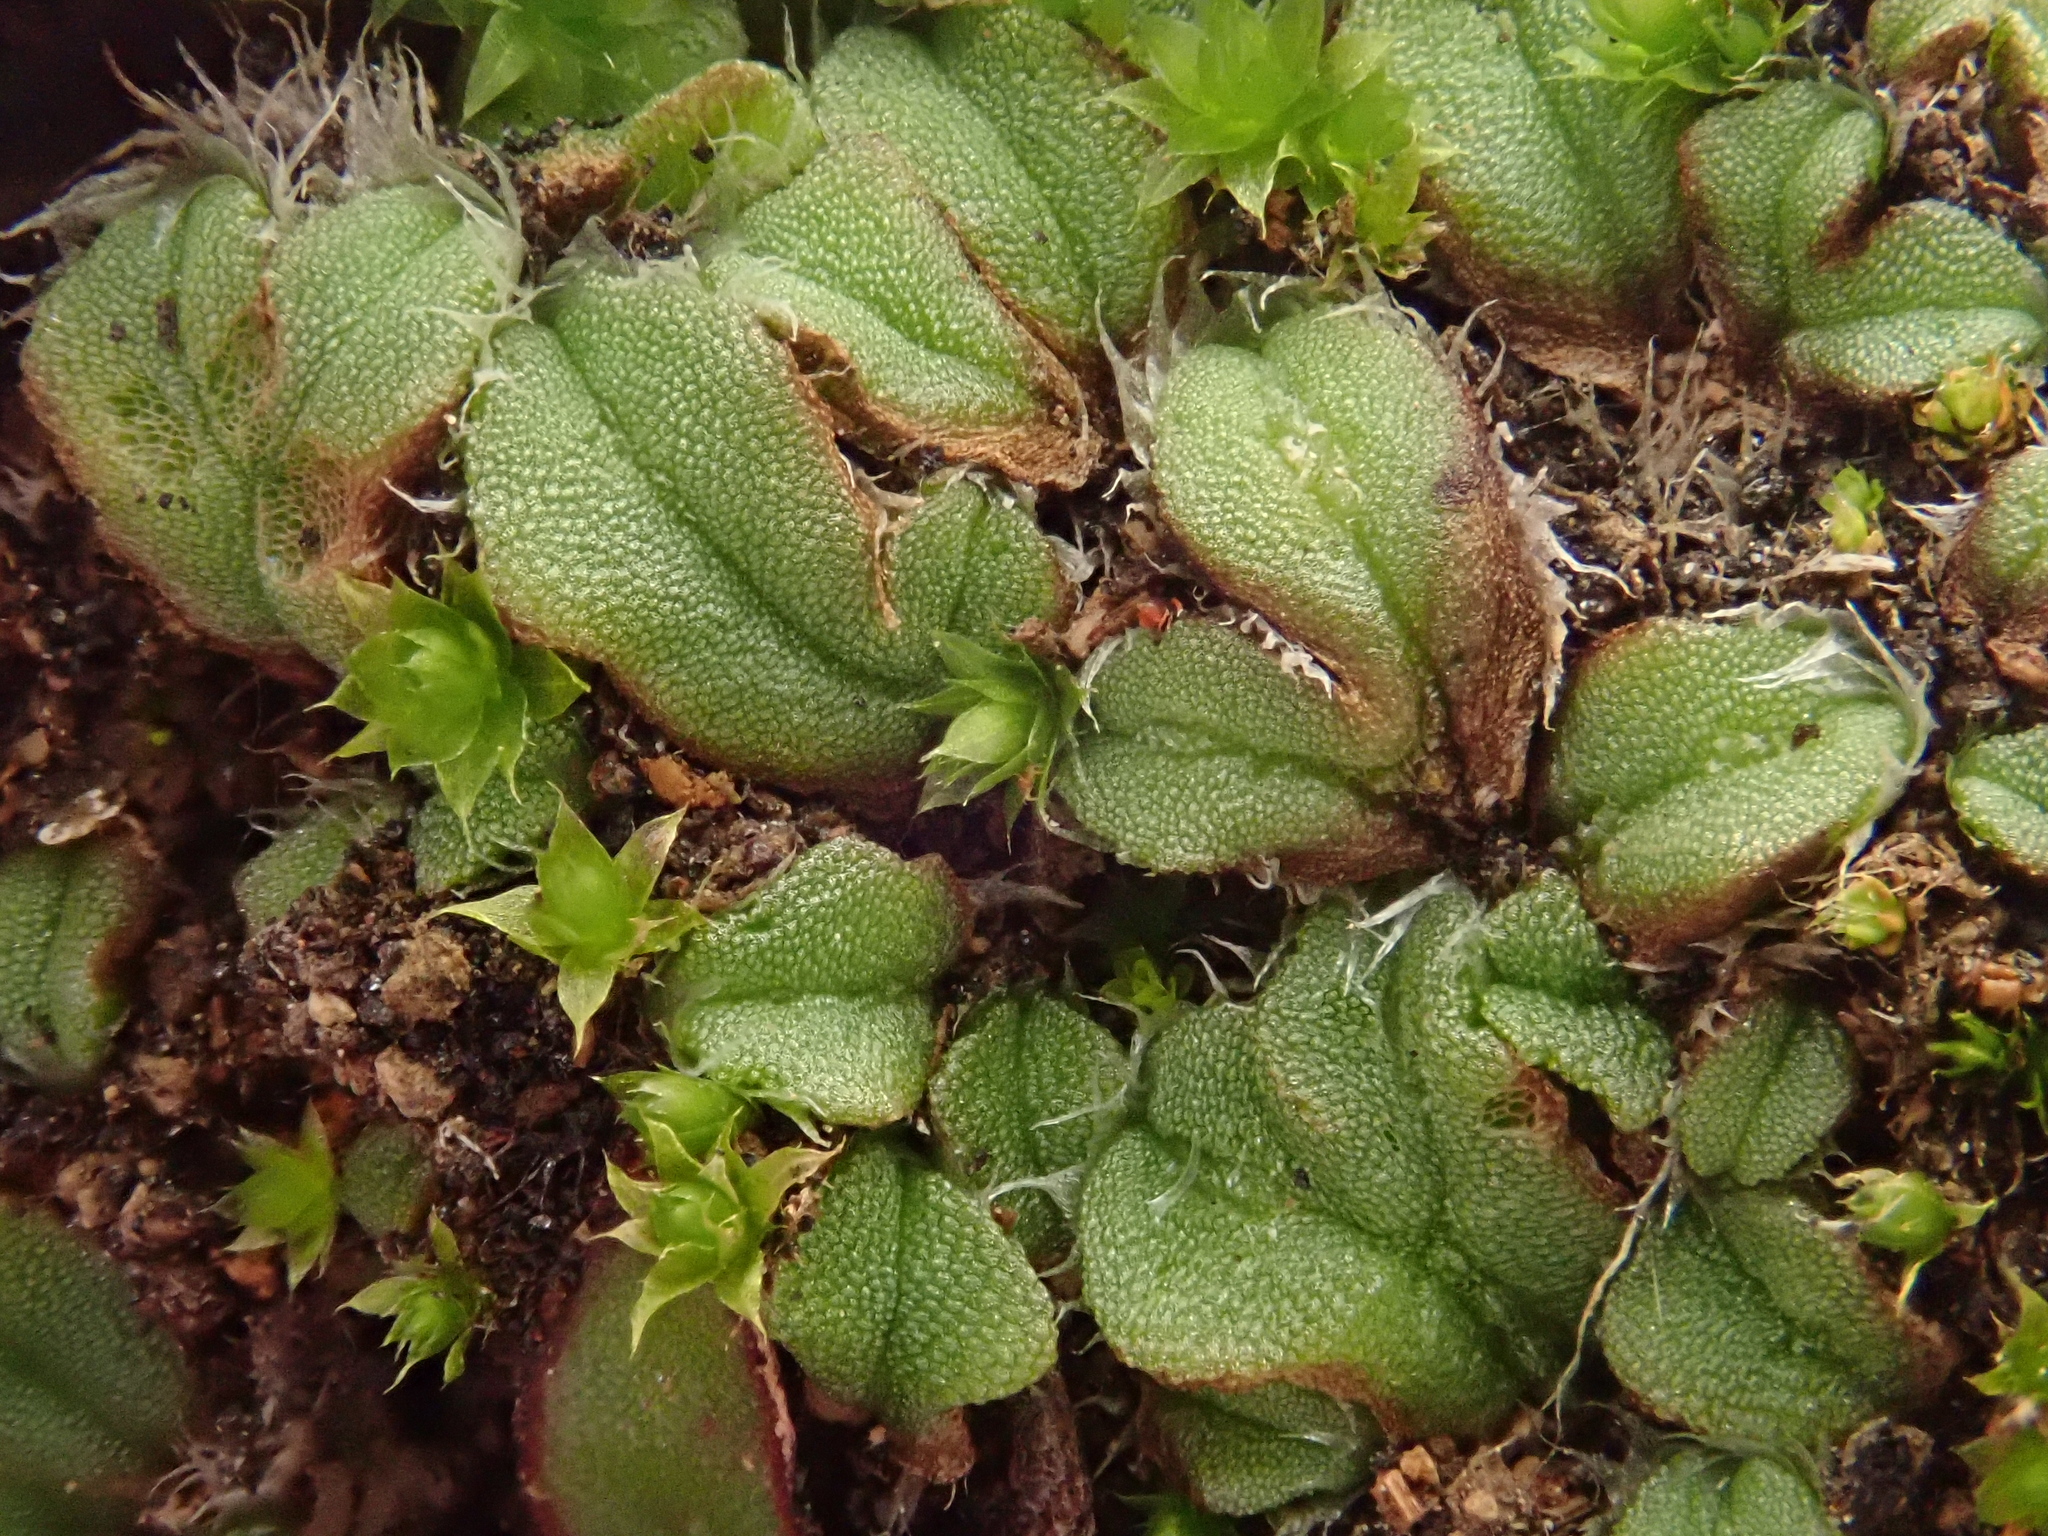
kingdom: Plantae
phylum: Marchantiophyta
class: Marchantiopsida
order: Marchantiales
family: Ricciaceae
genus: Oxymitra
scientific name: Oxymitra incrassata
